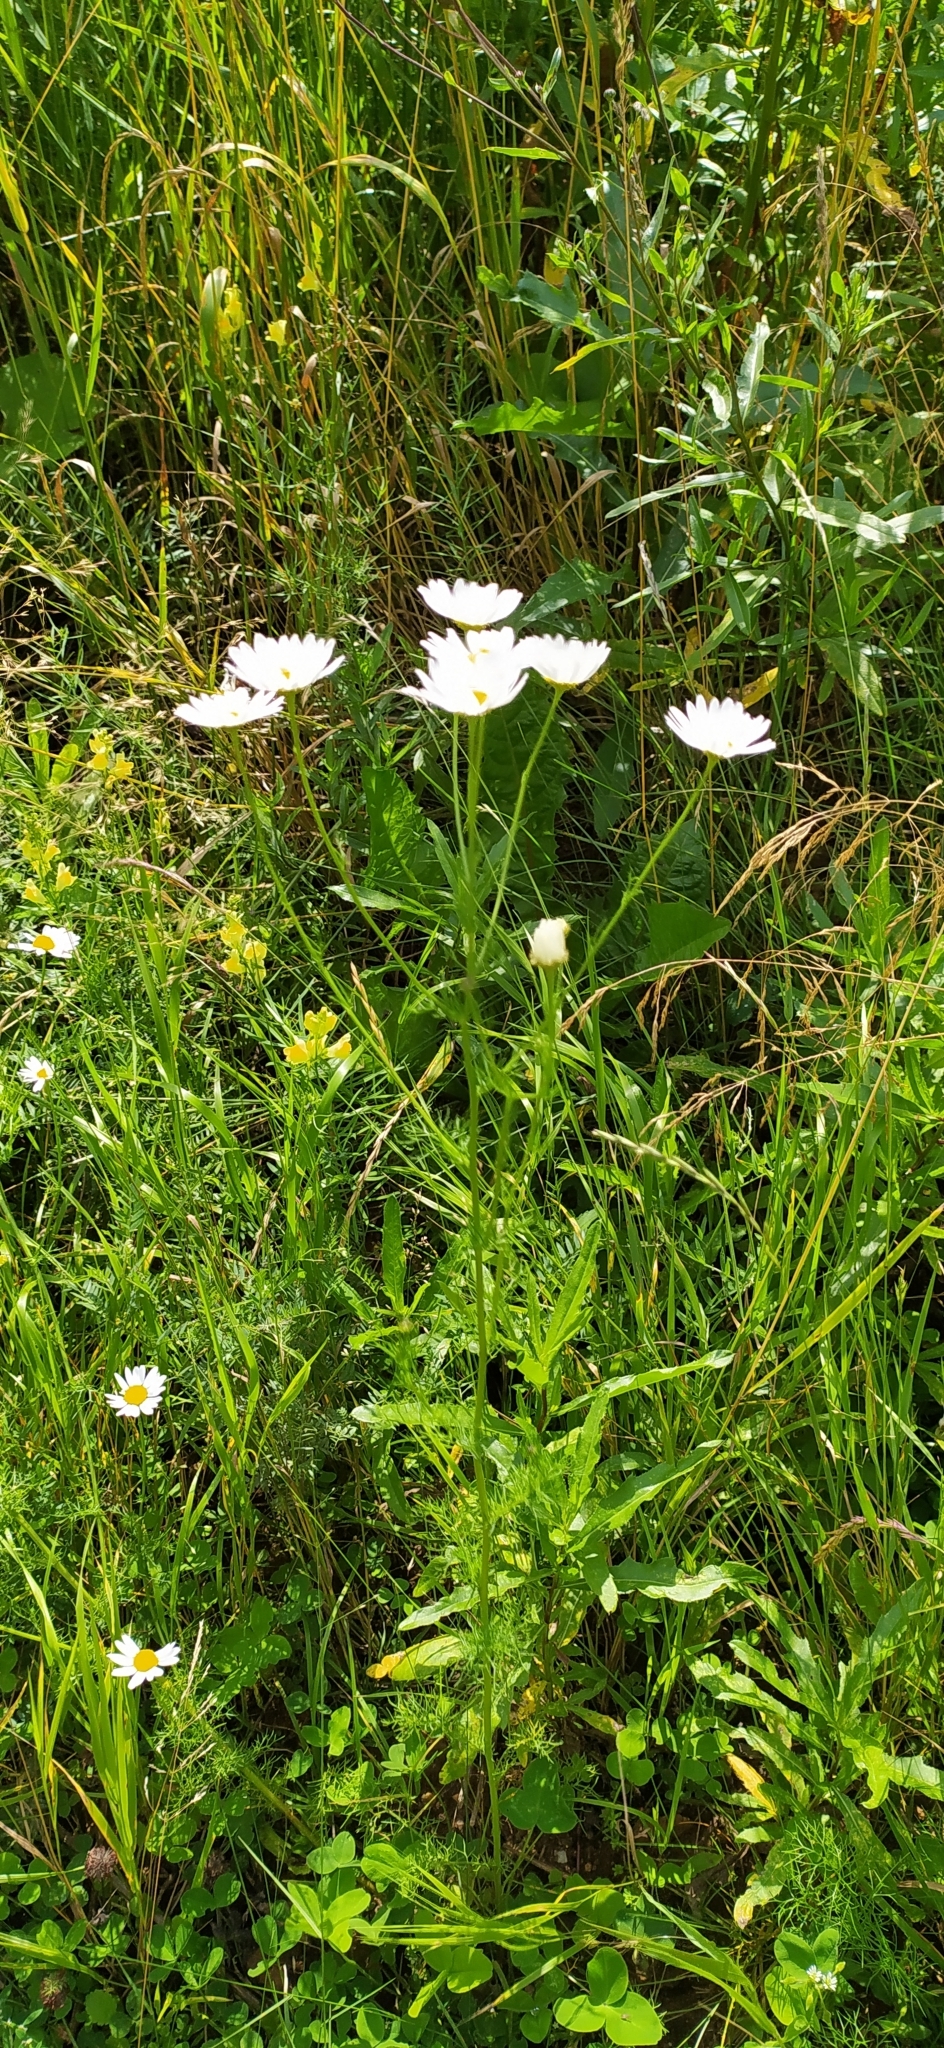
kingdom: Plantae
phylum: Tracheophyta
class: Magnoliopsida
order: Asterales
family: Asteraceae
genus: Tripleurospermum
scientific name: Tripleurospermum inodorum
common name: Scentless mayweed
